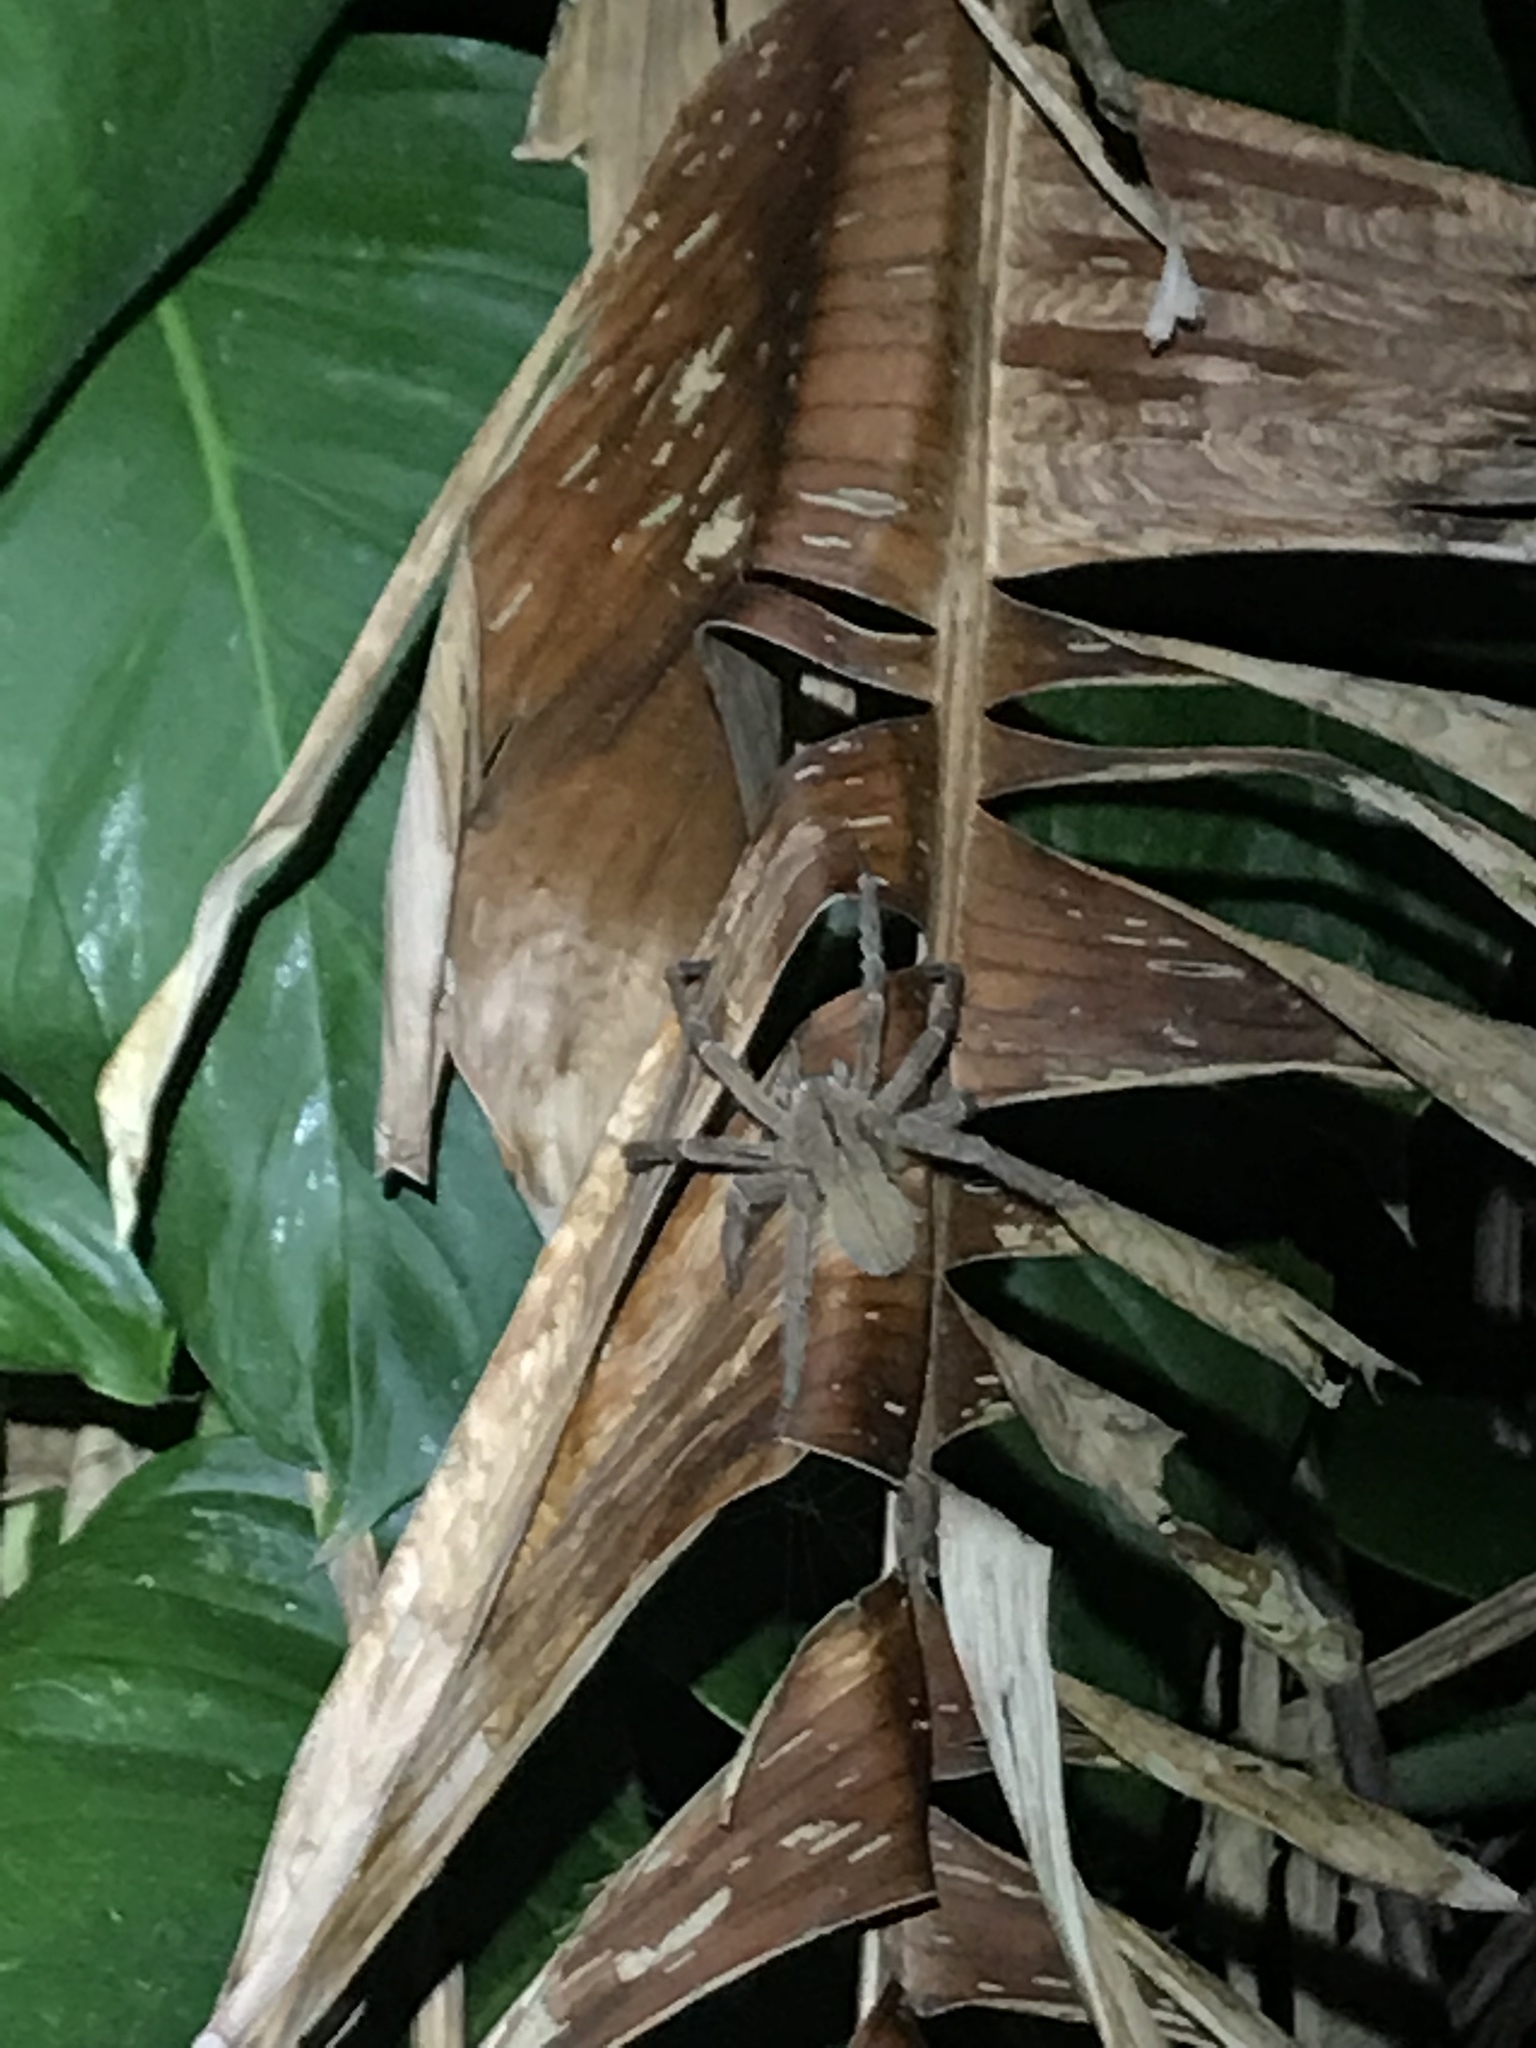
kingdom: Animalia
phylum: Arthropoda
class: Arachnida
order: Araneae
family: Ctenidae
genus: Phoneutria
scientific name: Phoneutria depilata
